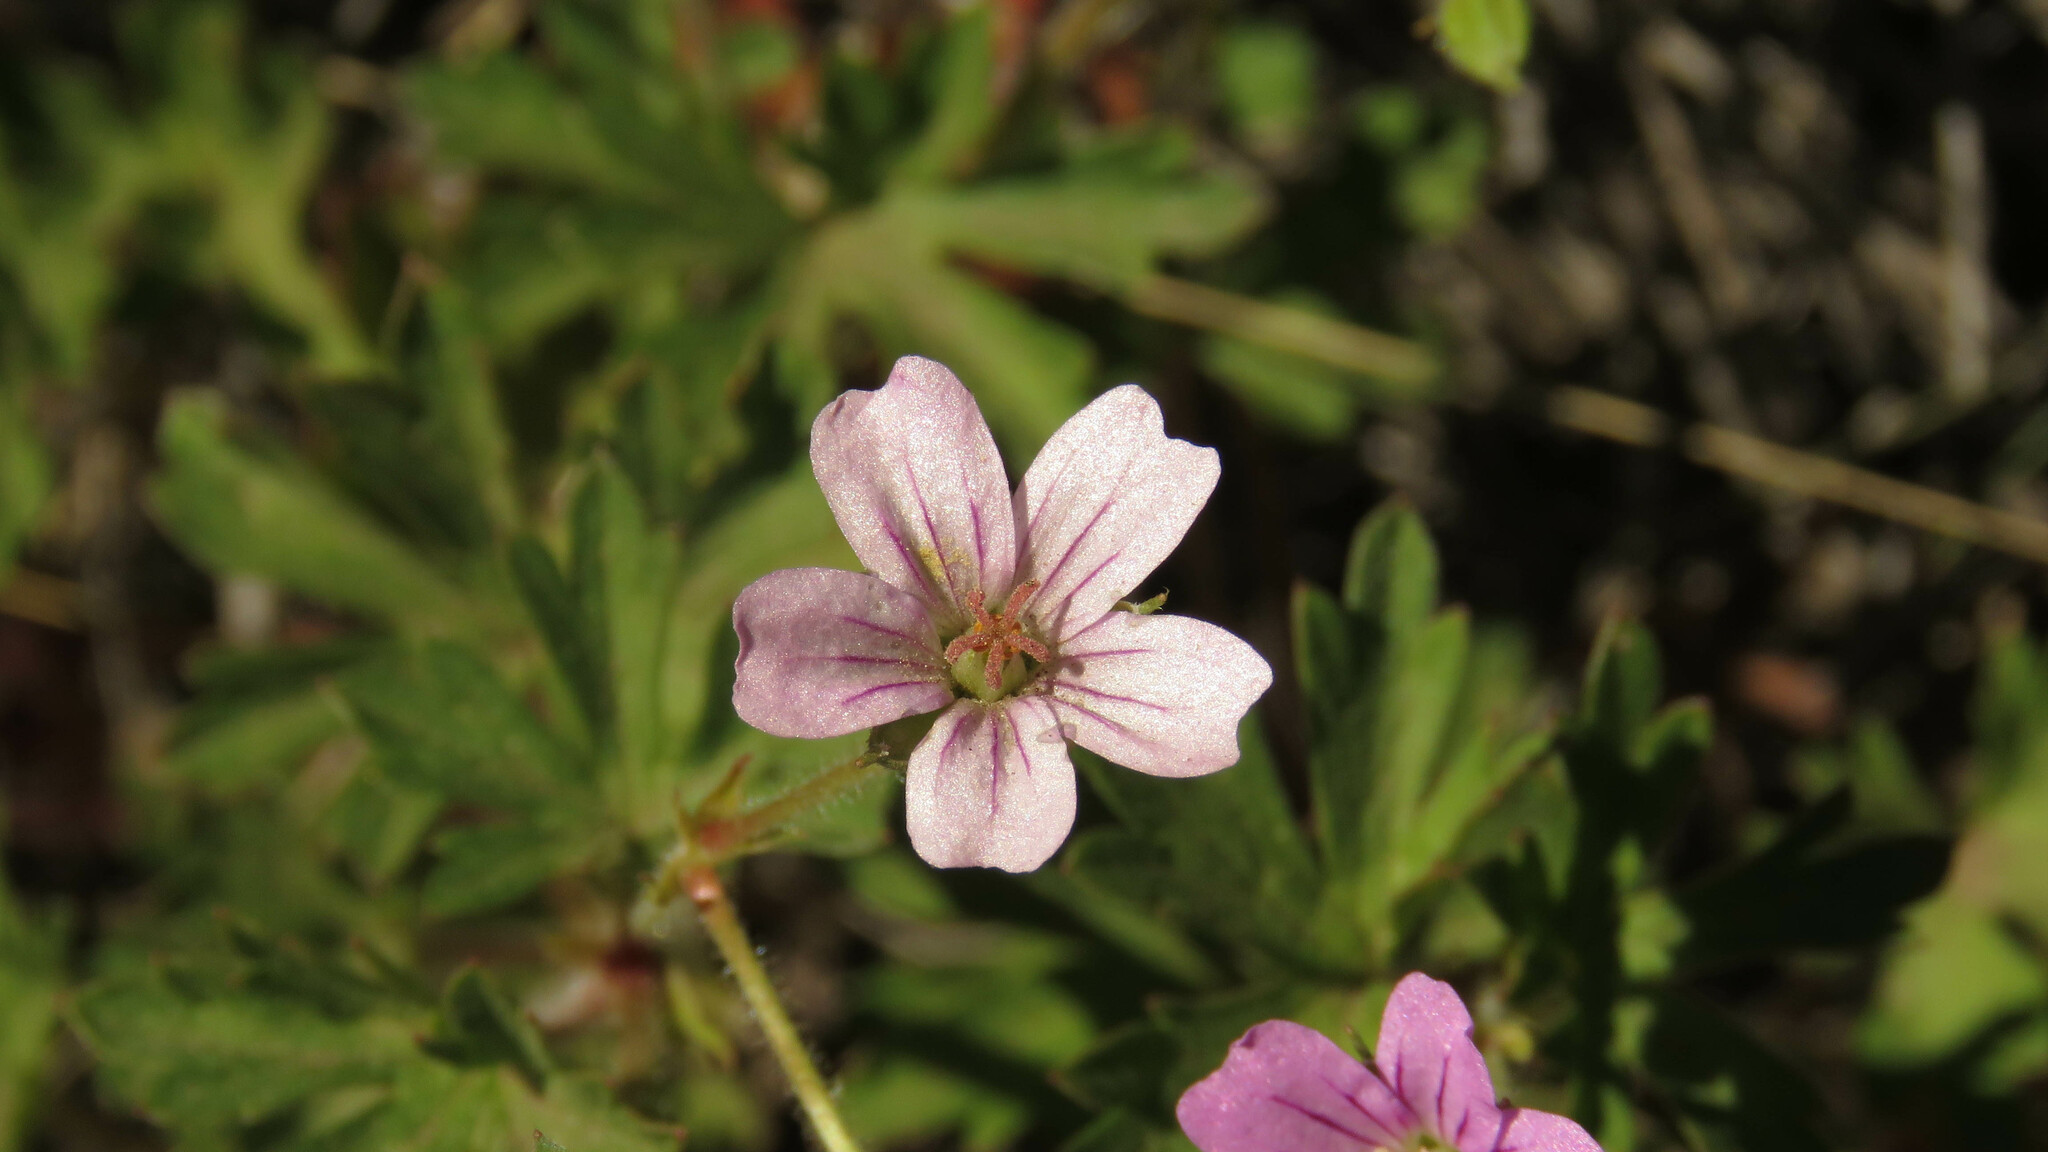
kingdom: Plantae
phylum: Tracheophyta
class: Magnoliopsida
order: Geraniales
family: Geraniaceae
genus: Geranium
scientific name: Geranium sessiliflorum
